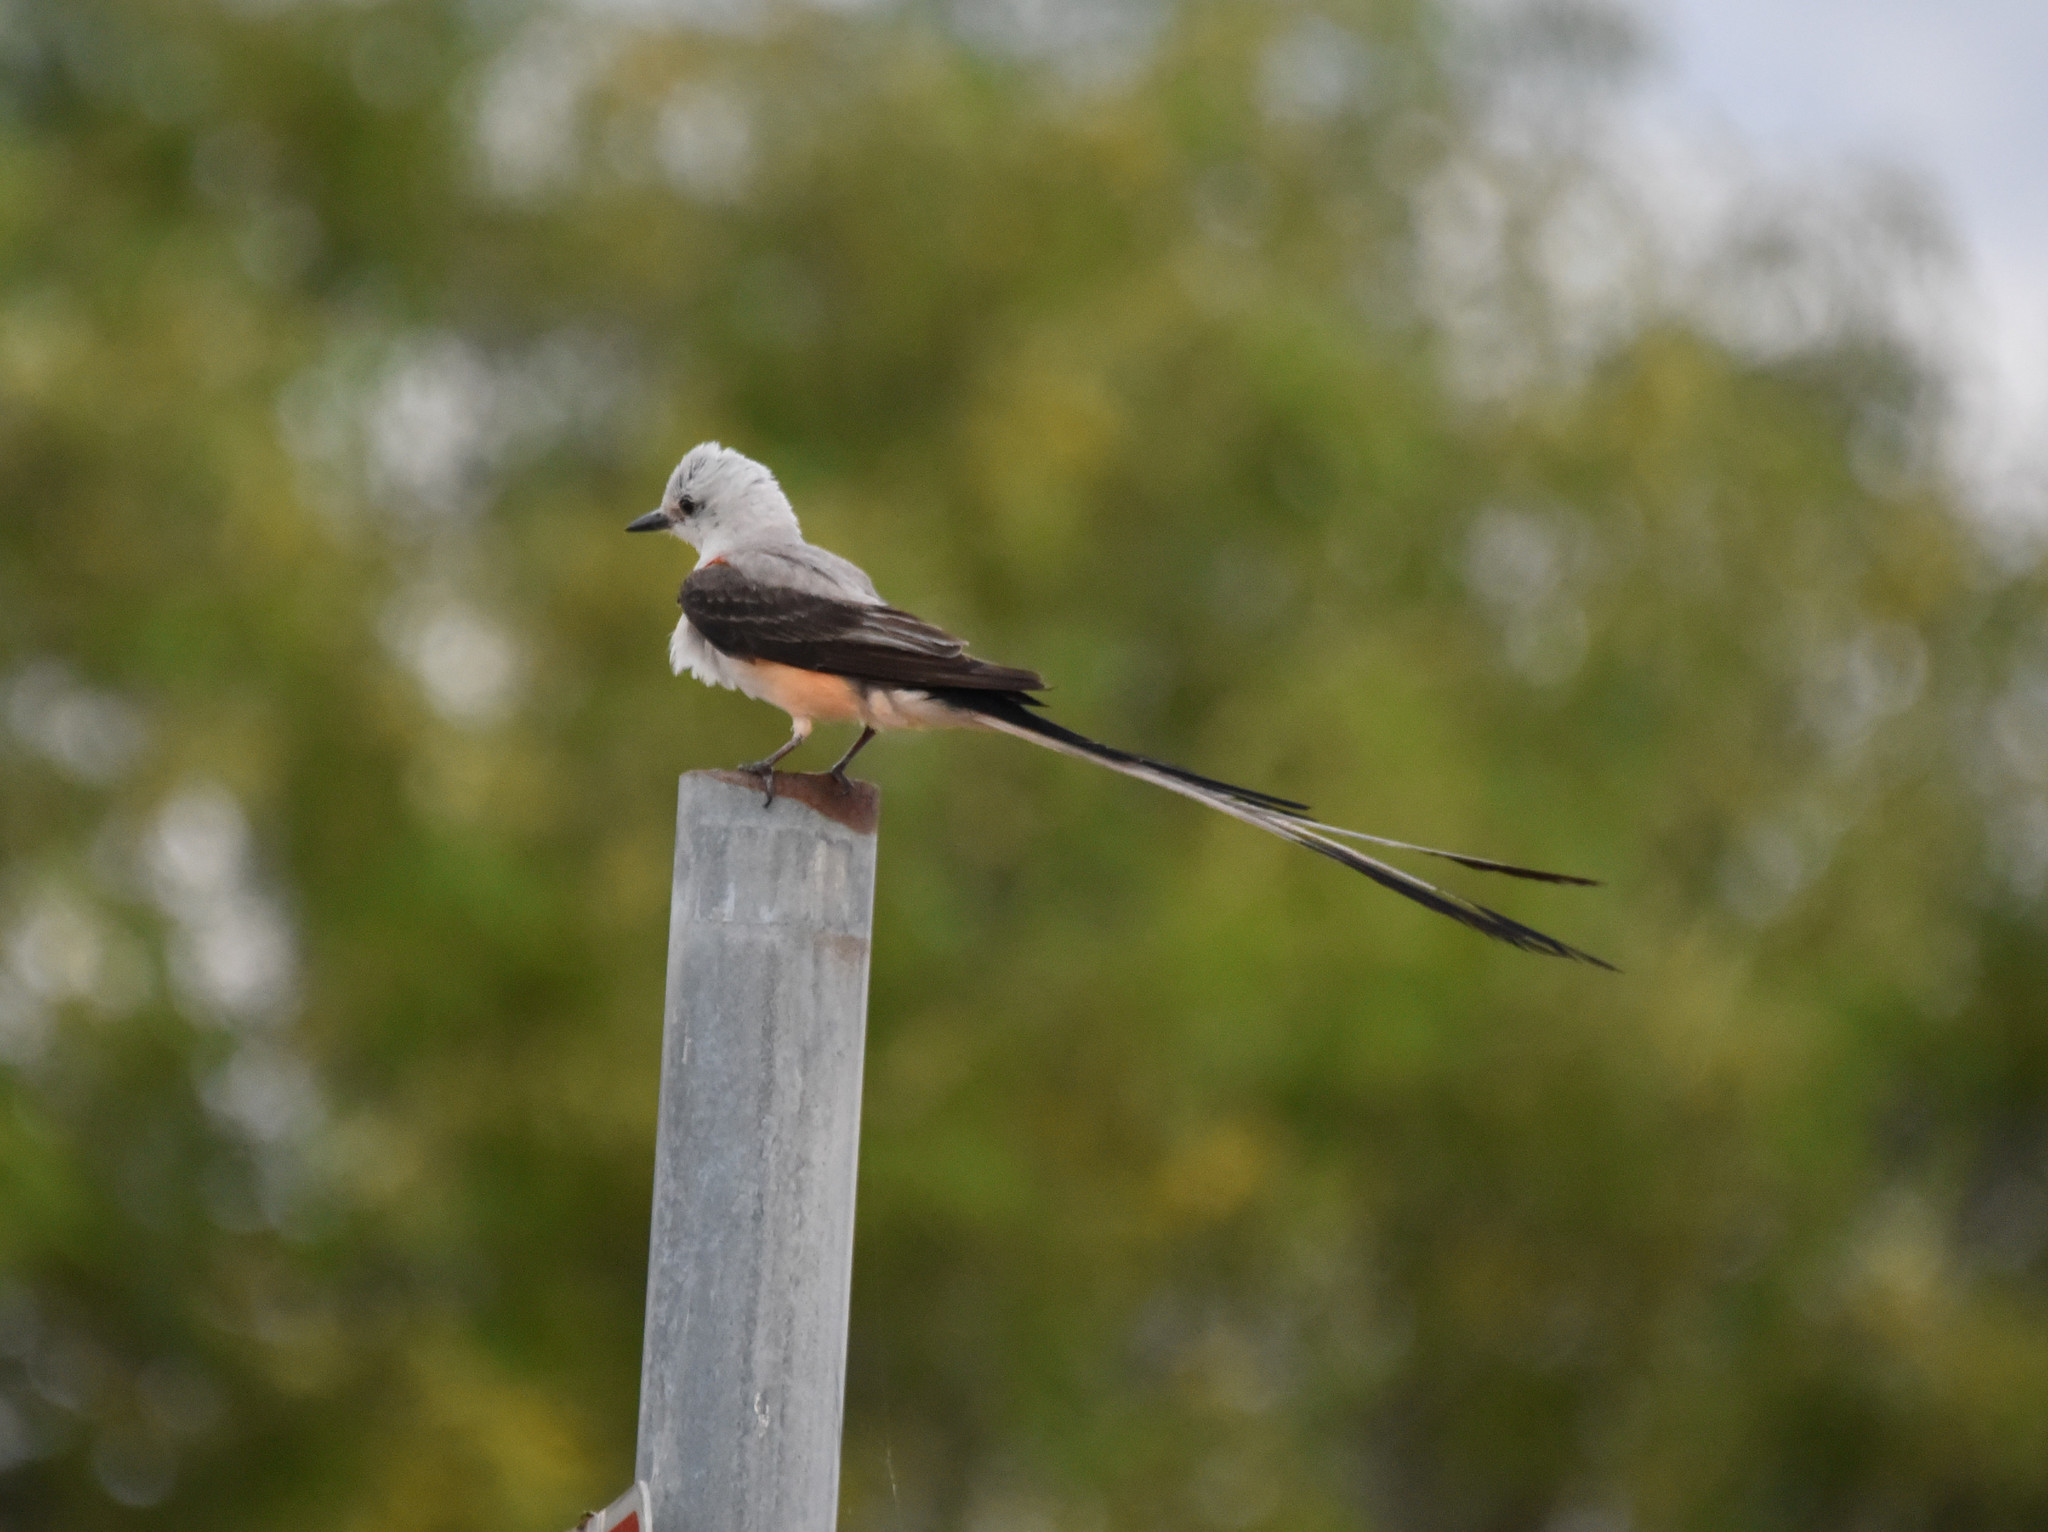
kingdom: Animalia
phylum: Chordata
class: Aves
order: Passeriformes
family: Tyrannidae
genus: Tyrannus
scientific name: Tyrannus forficatus
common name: Scissor-tailed flycatcher
